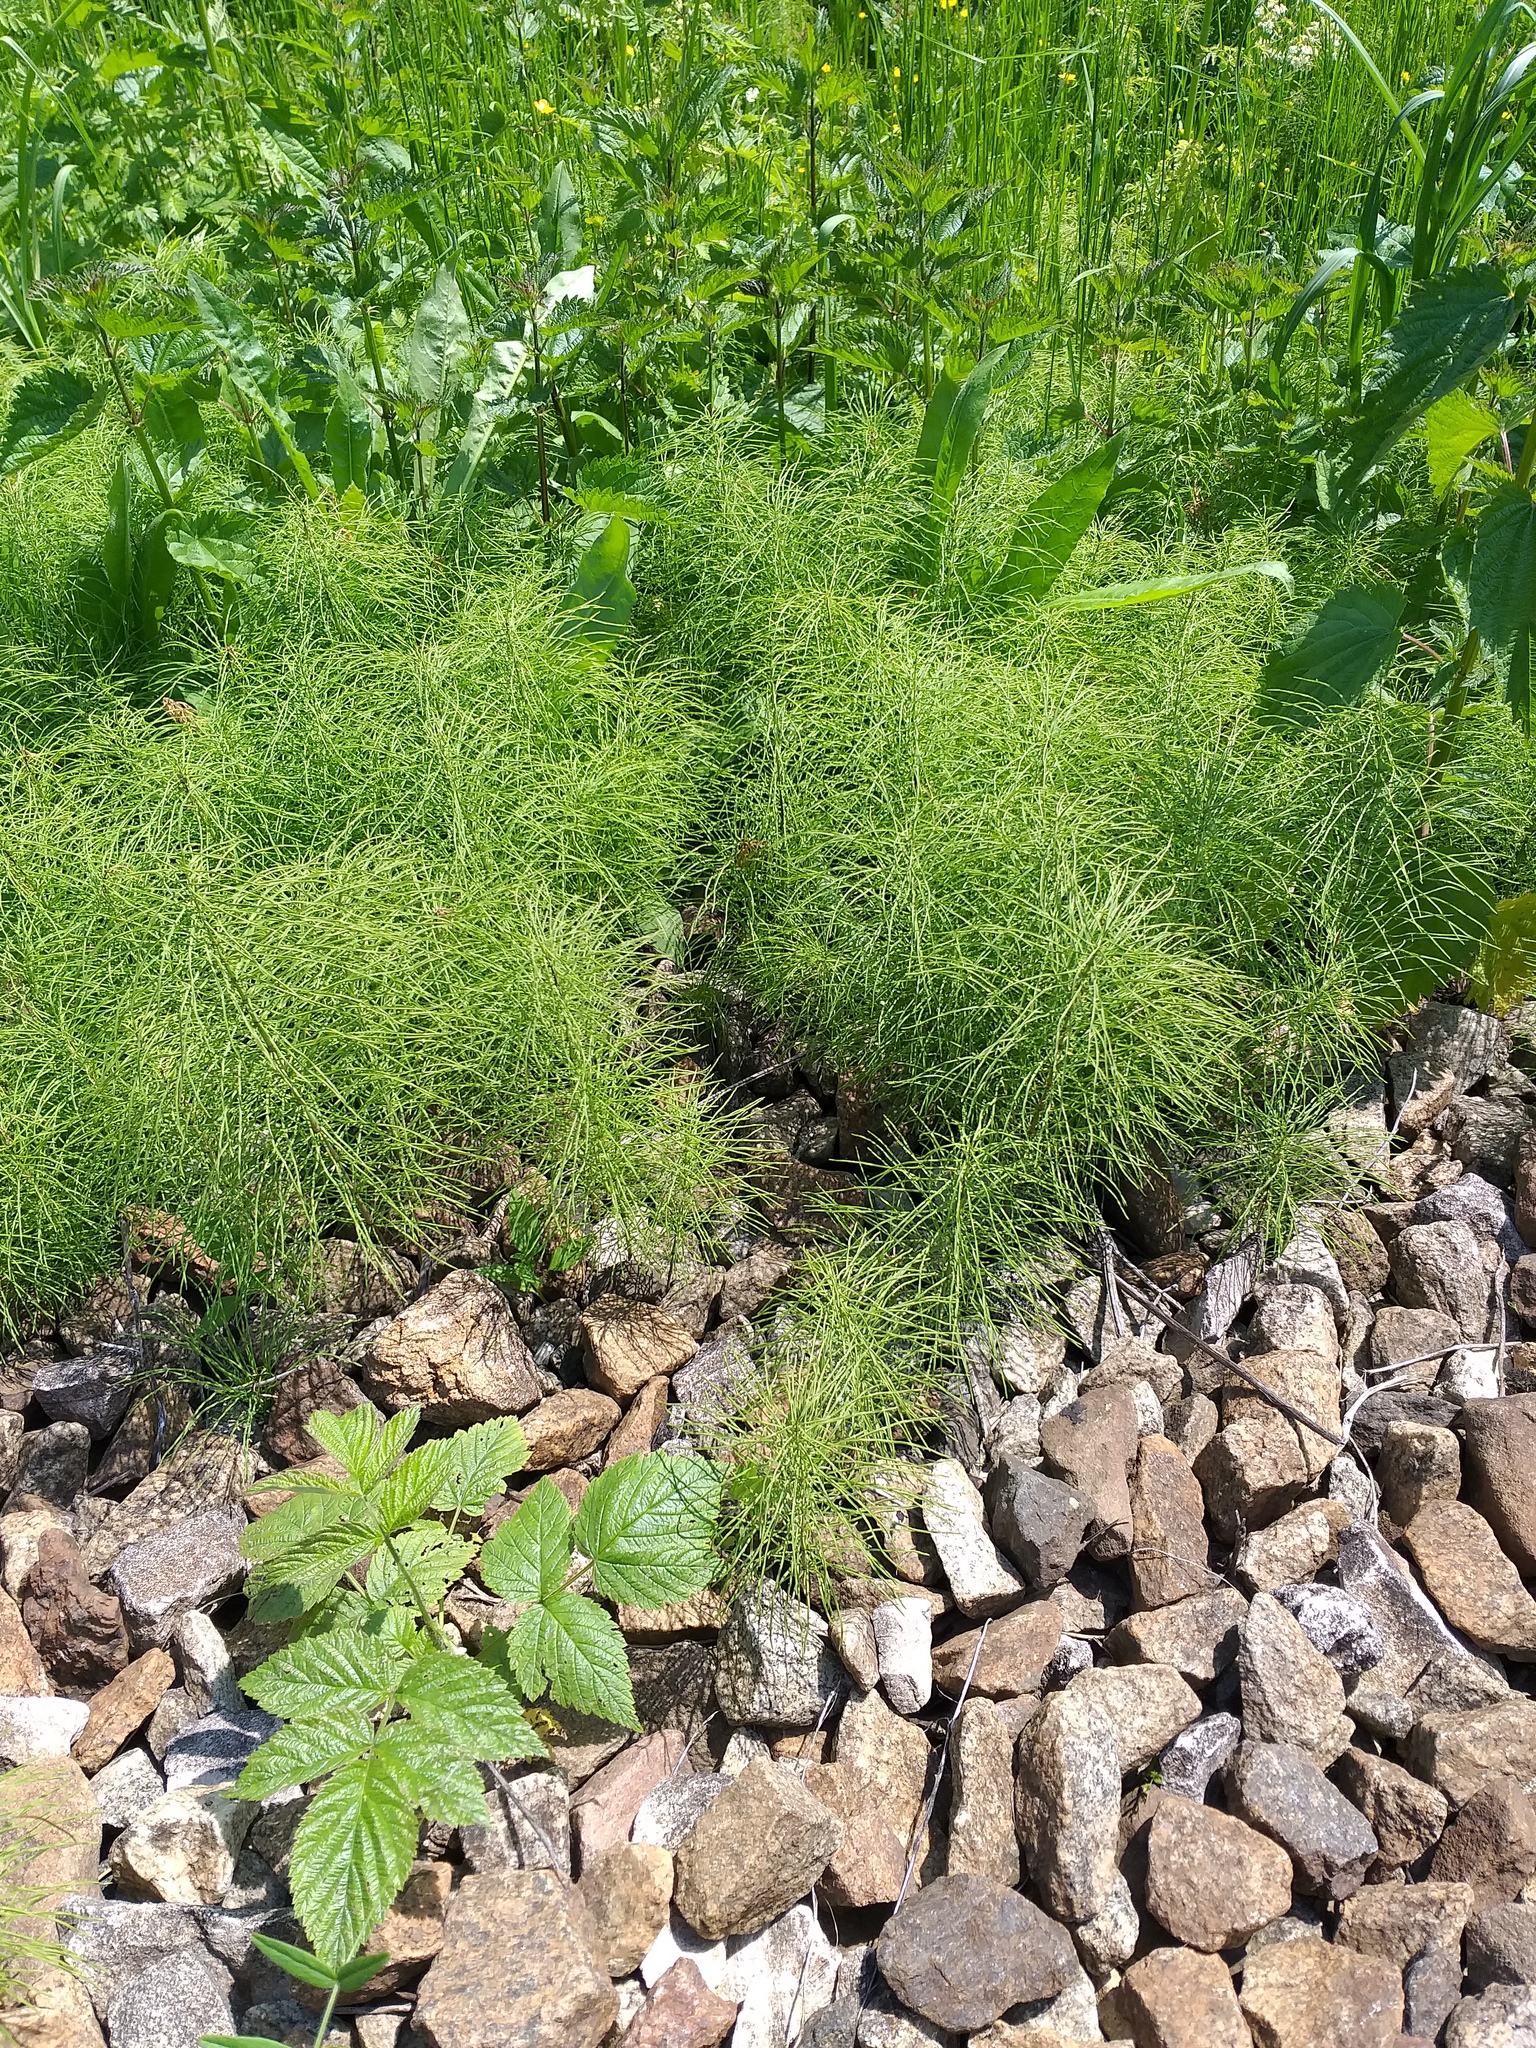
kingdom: Plantae
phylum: Tracheophyta
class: Polypodiopsida
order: Equisetales
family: Equisetaceae
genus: Equisetum
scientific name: Equisetum pratense
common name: Meadow horsetail
